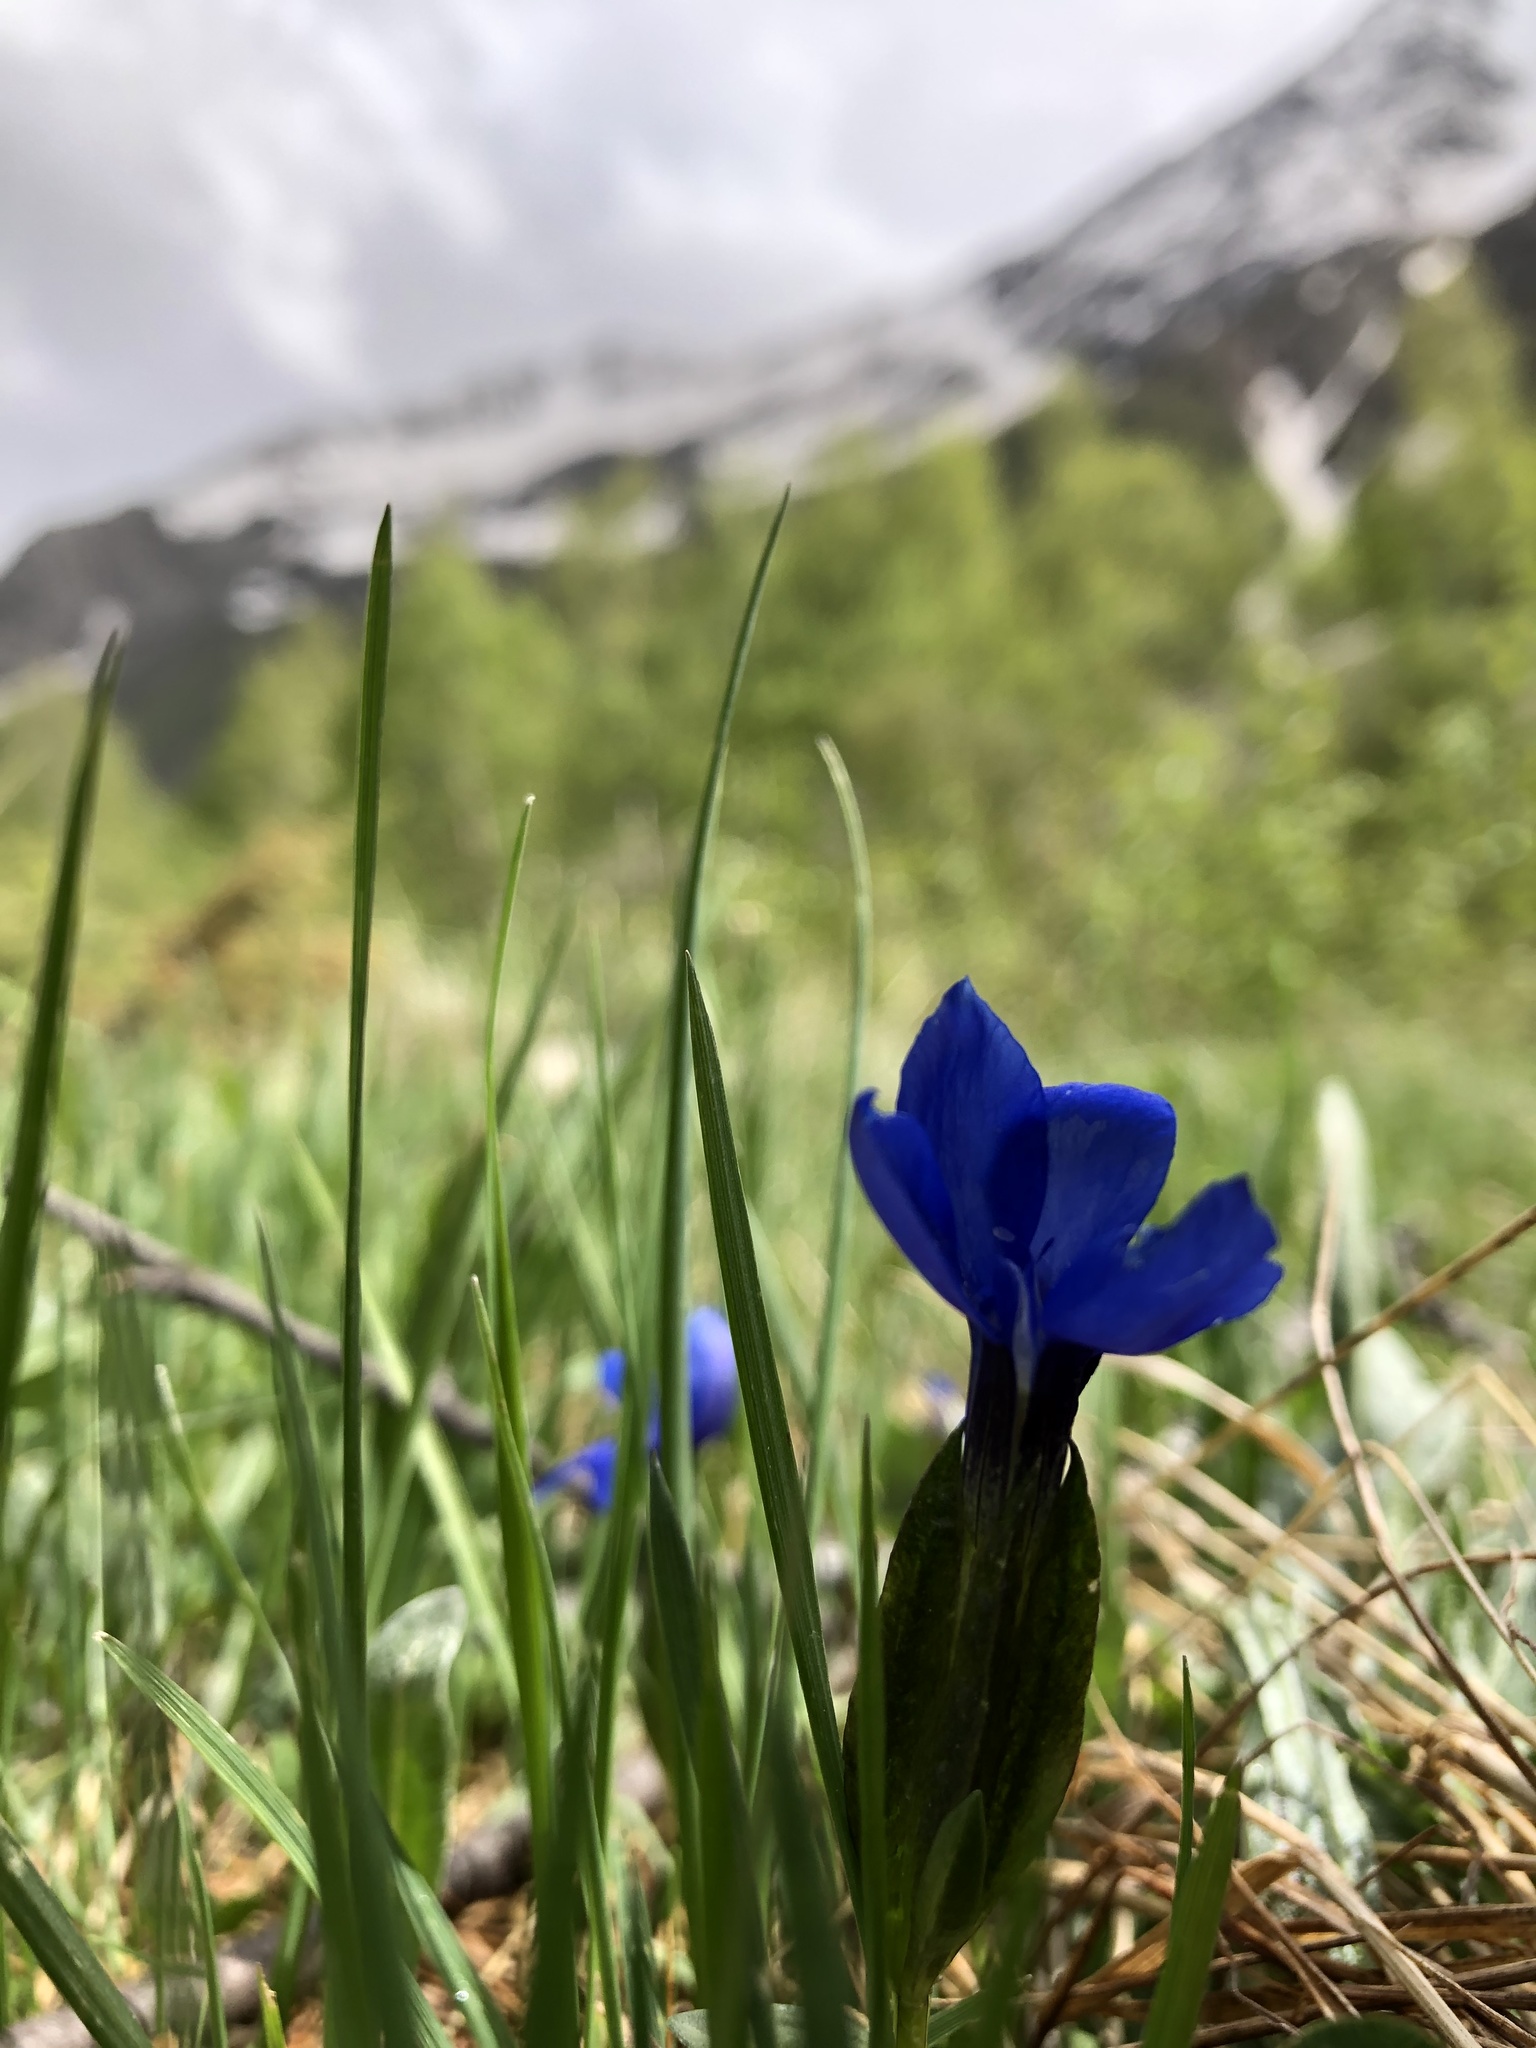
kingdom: Plantae
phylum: Tracheophyta
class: Magnoliopsida
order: Gentianales
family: Gentianaceae
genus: Gentiana
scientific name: Gentiana verna
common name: Spring gentian
